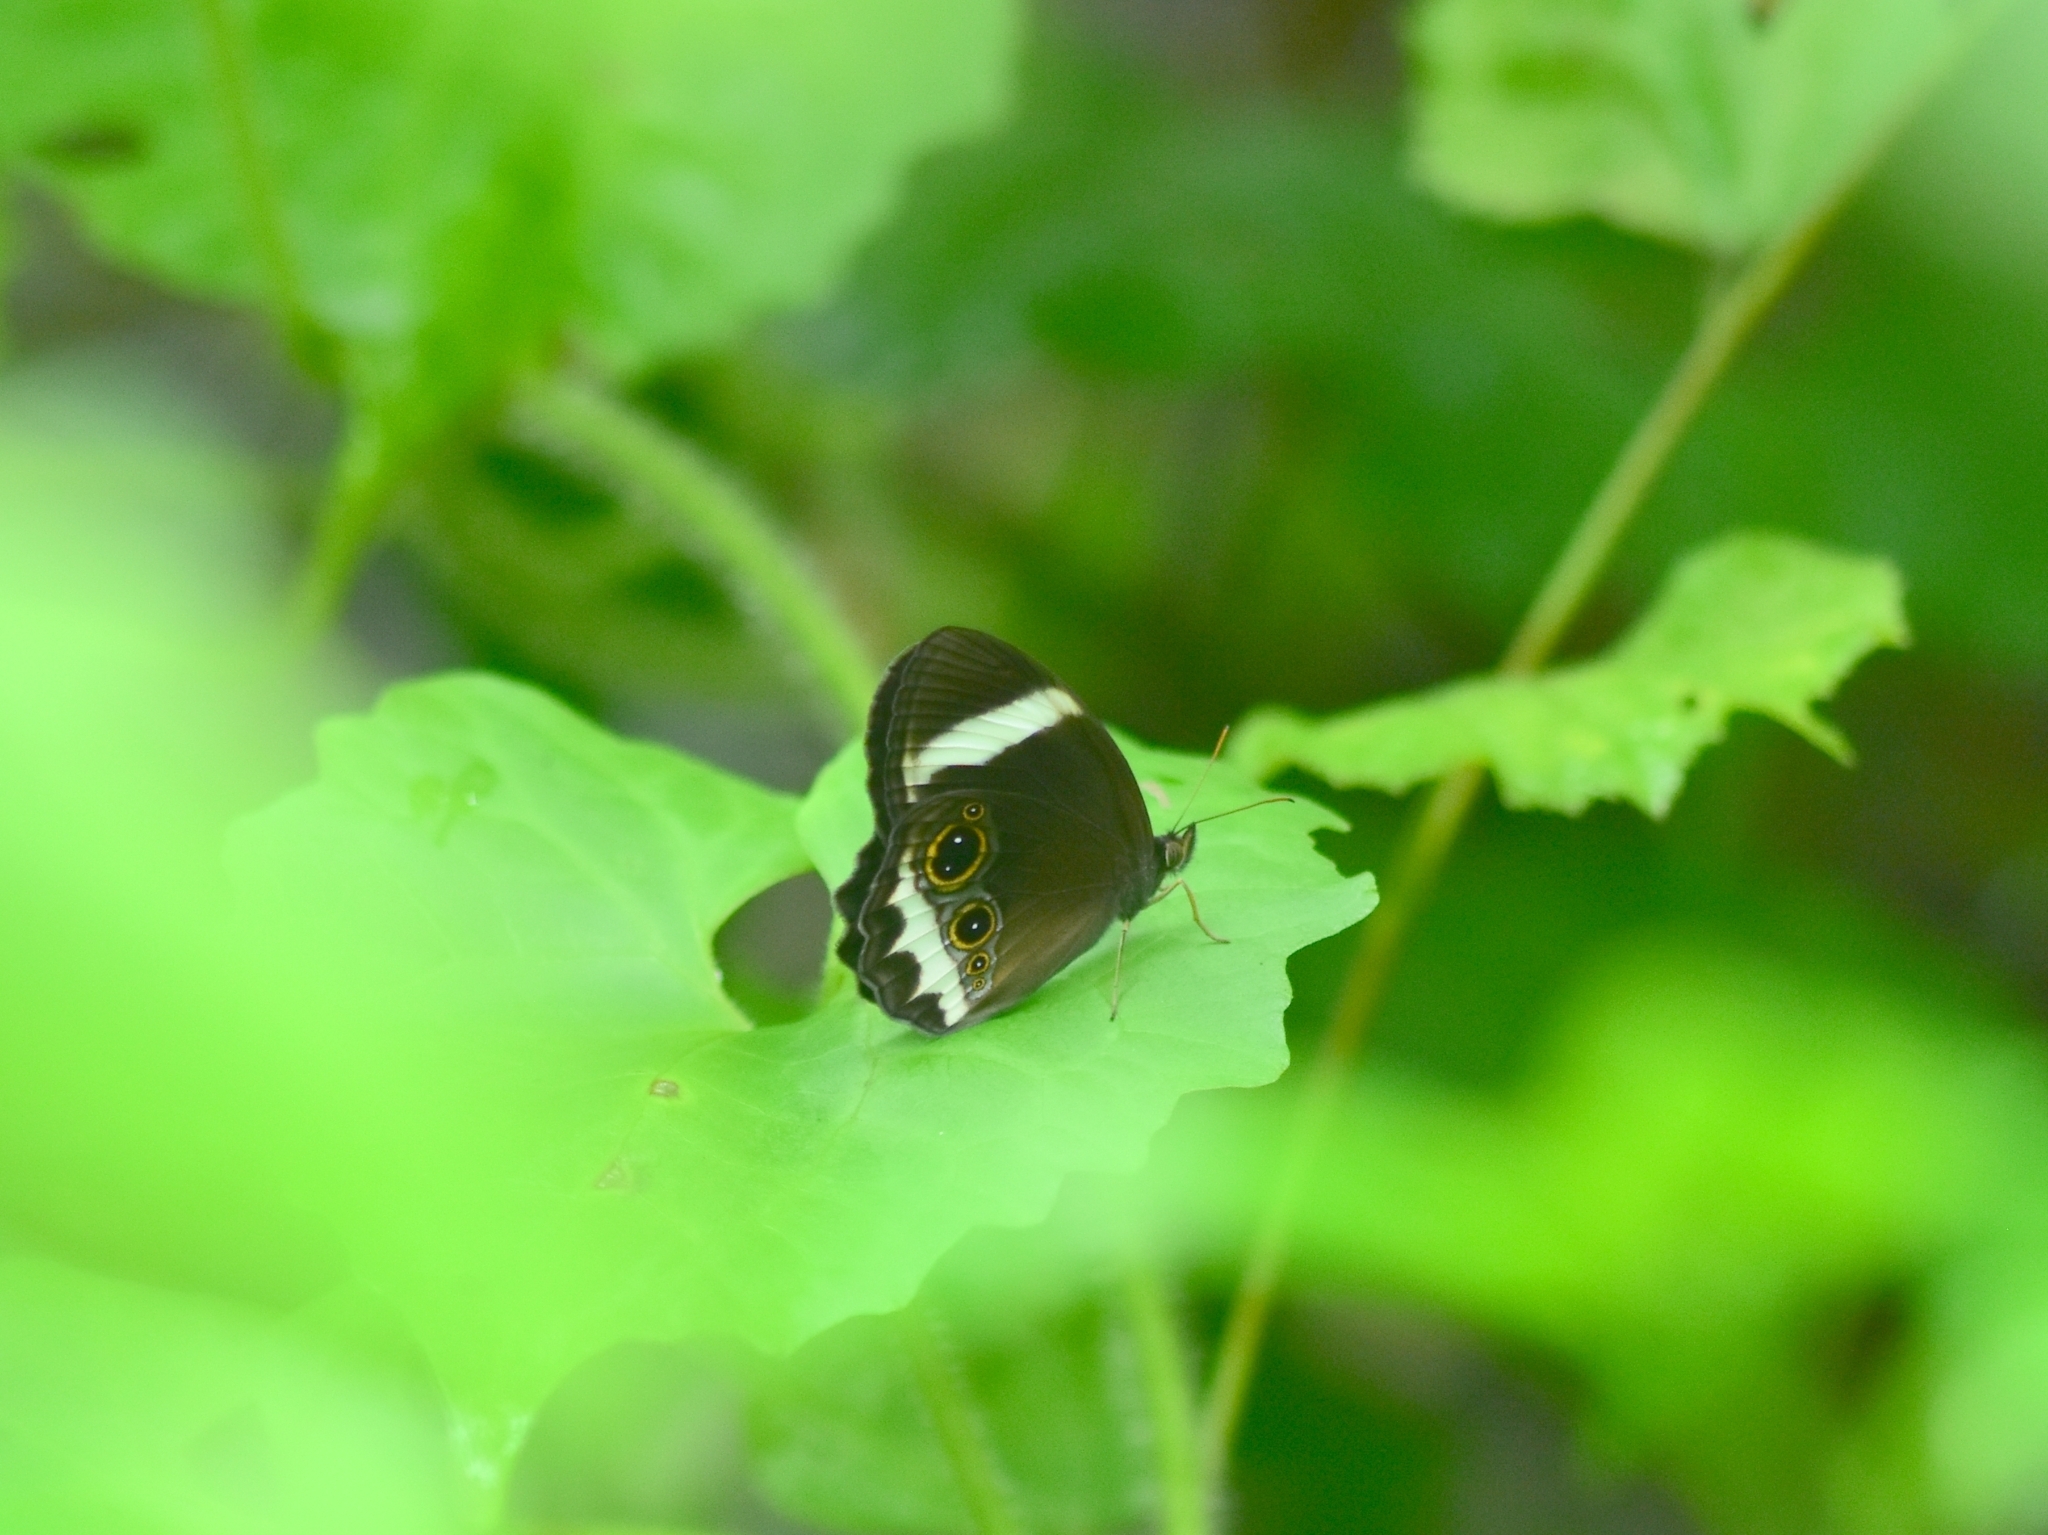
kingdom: Animalia
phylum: Arthropoda
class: Insecta
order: Lepidoptera
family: Nymphalidae
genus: Zipaetis
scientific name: Zipaetis saitis
